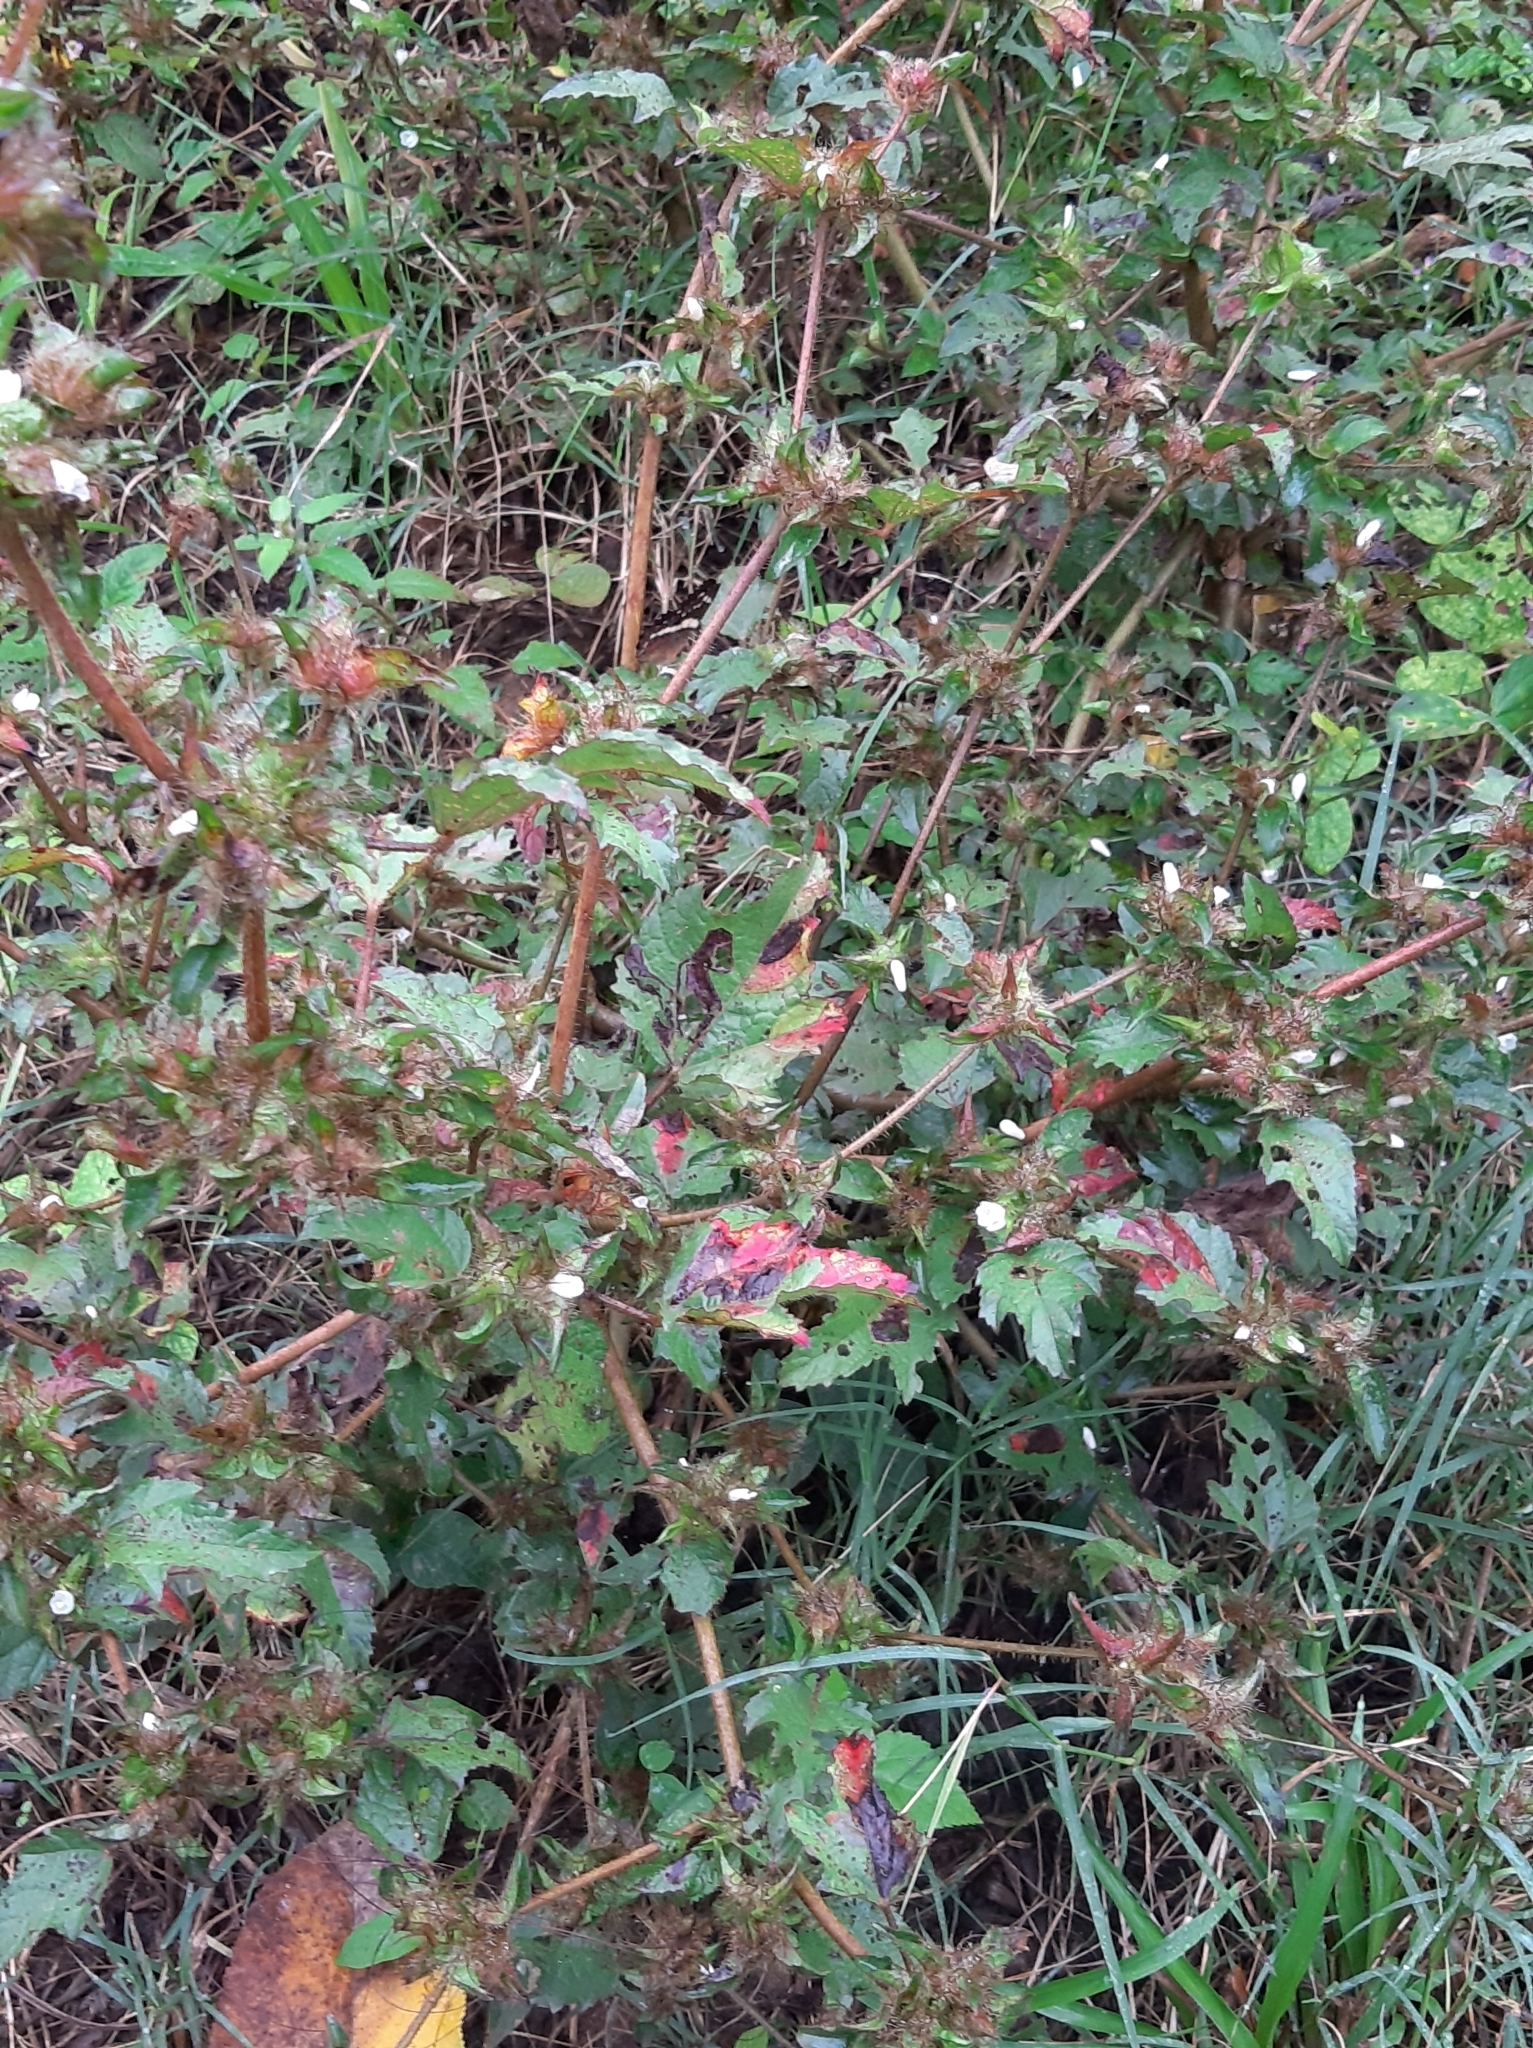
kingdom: Plantae
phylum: Tracheophyta
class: Magnoliopsida
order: Malvales
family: Malvaceae
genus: Malachra
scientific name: Malachra fasciata
